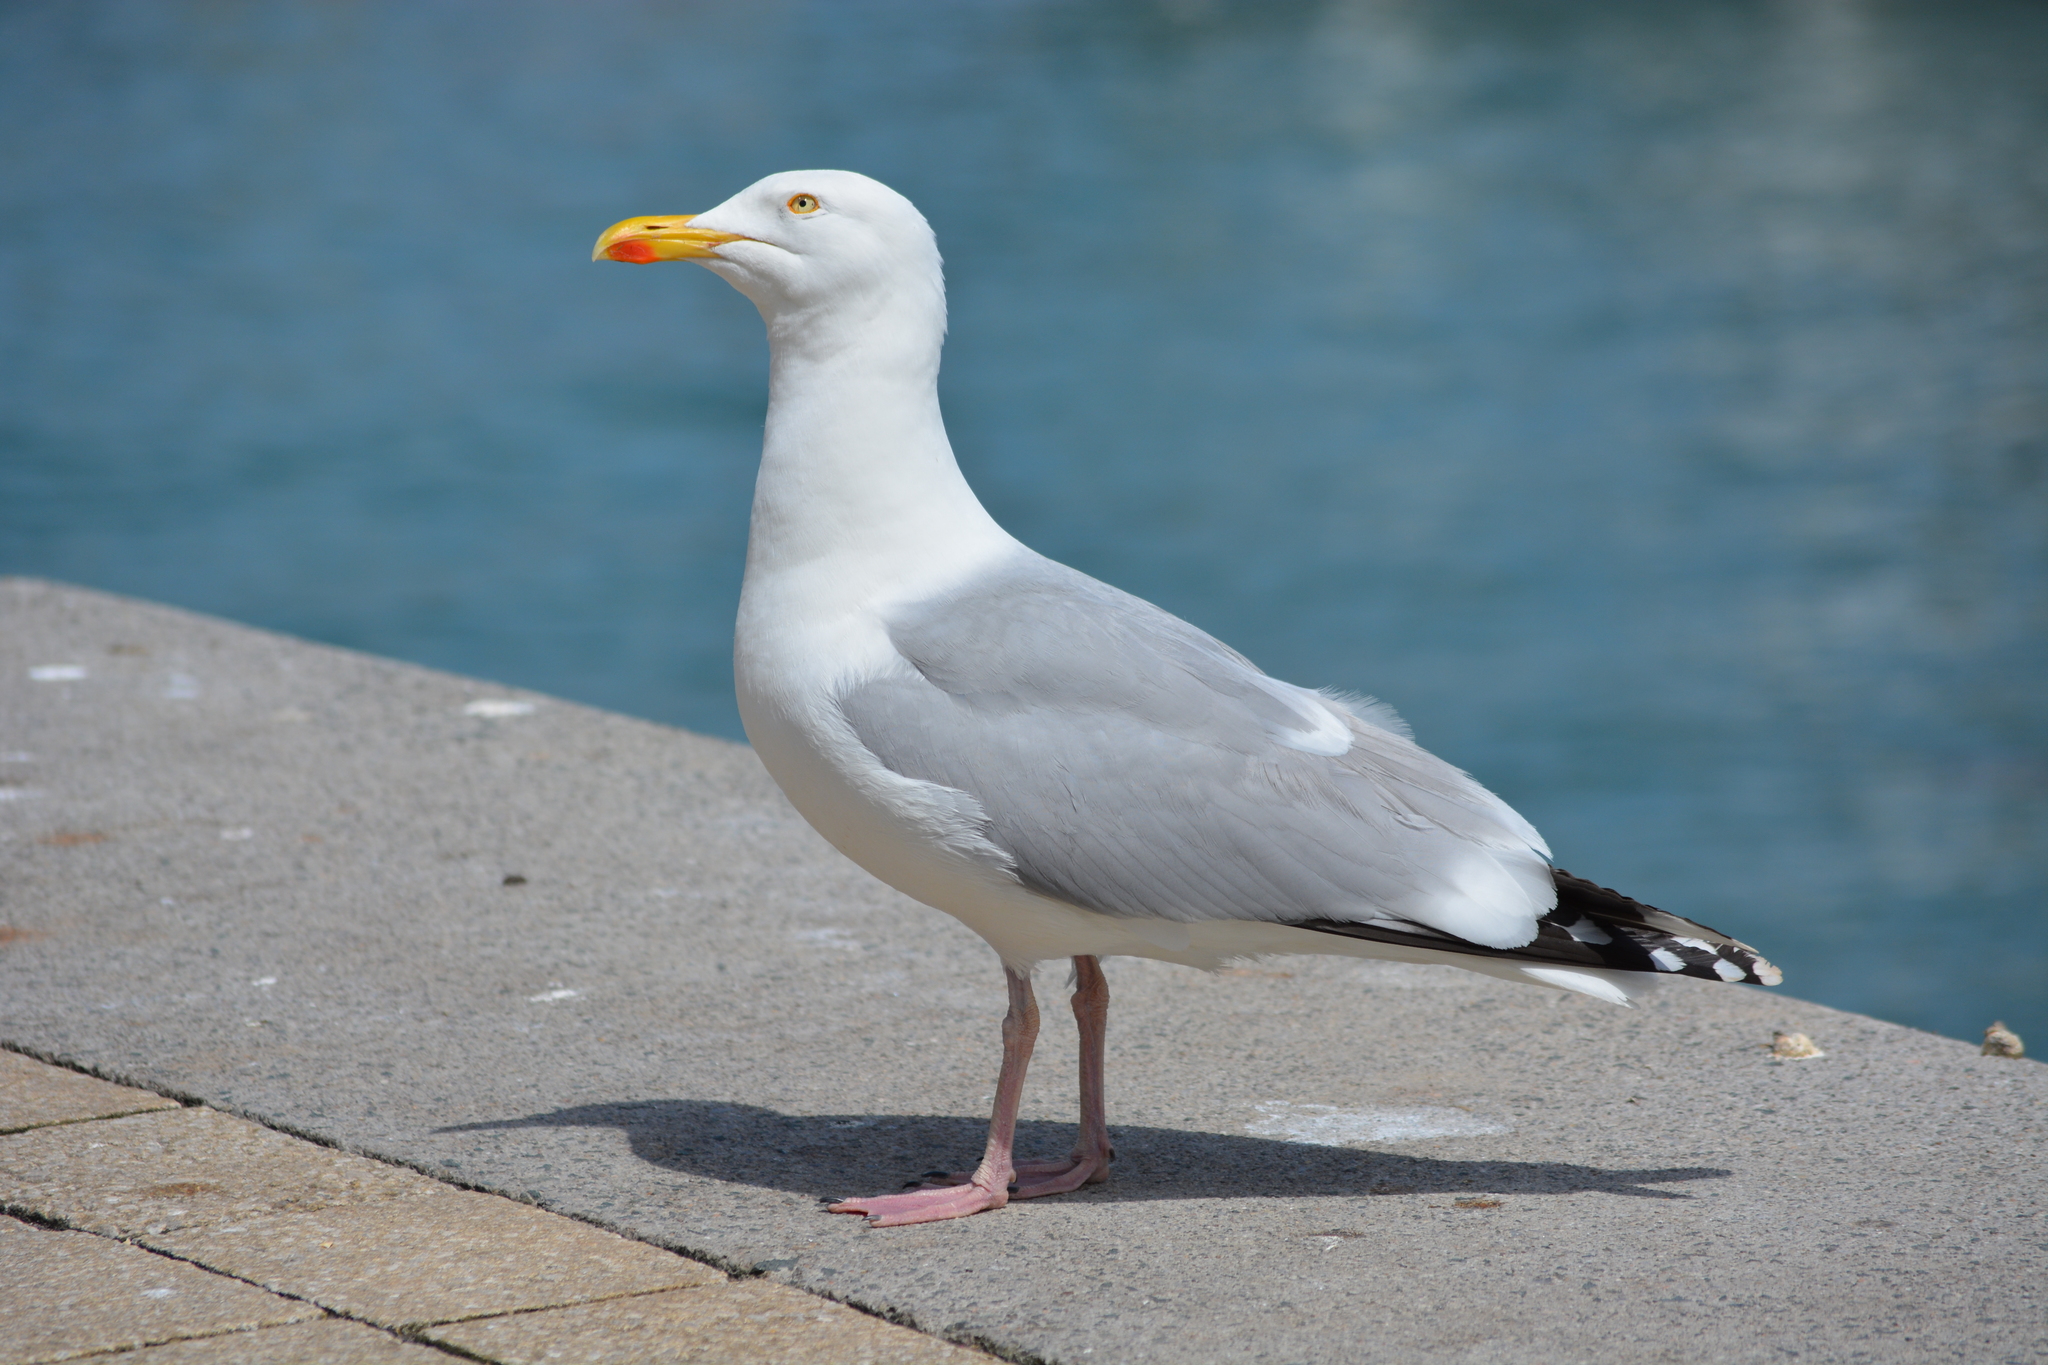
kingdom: Animalia
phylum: Chordata
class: Aves
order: Charadriiformes
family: Laridae
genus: Larus
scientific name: Larus argentatus
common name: Herring gull
